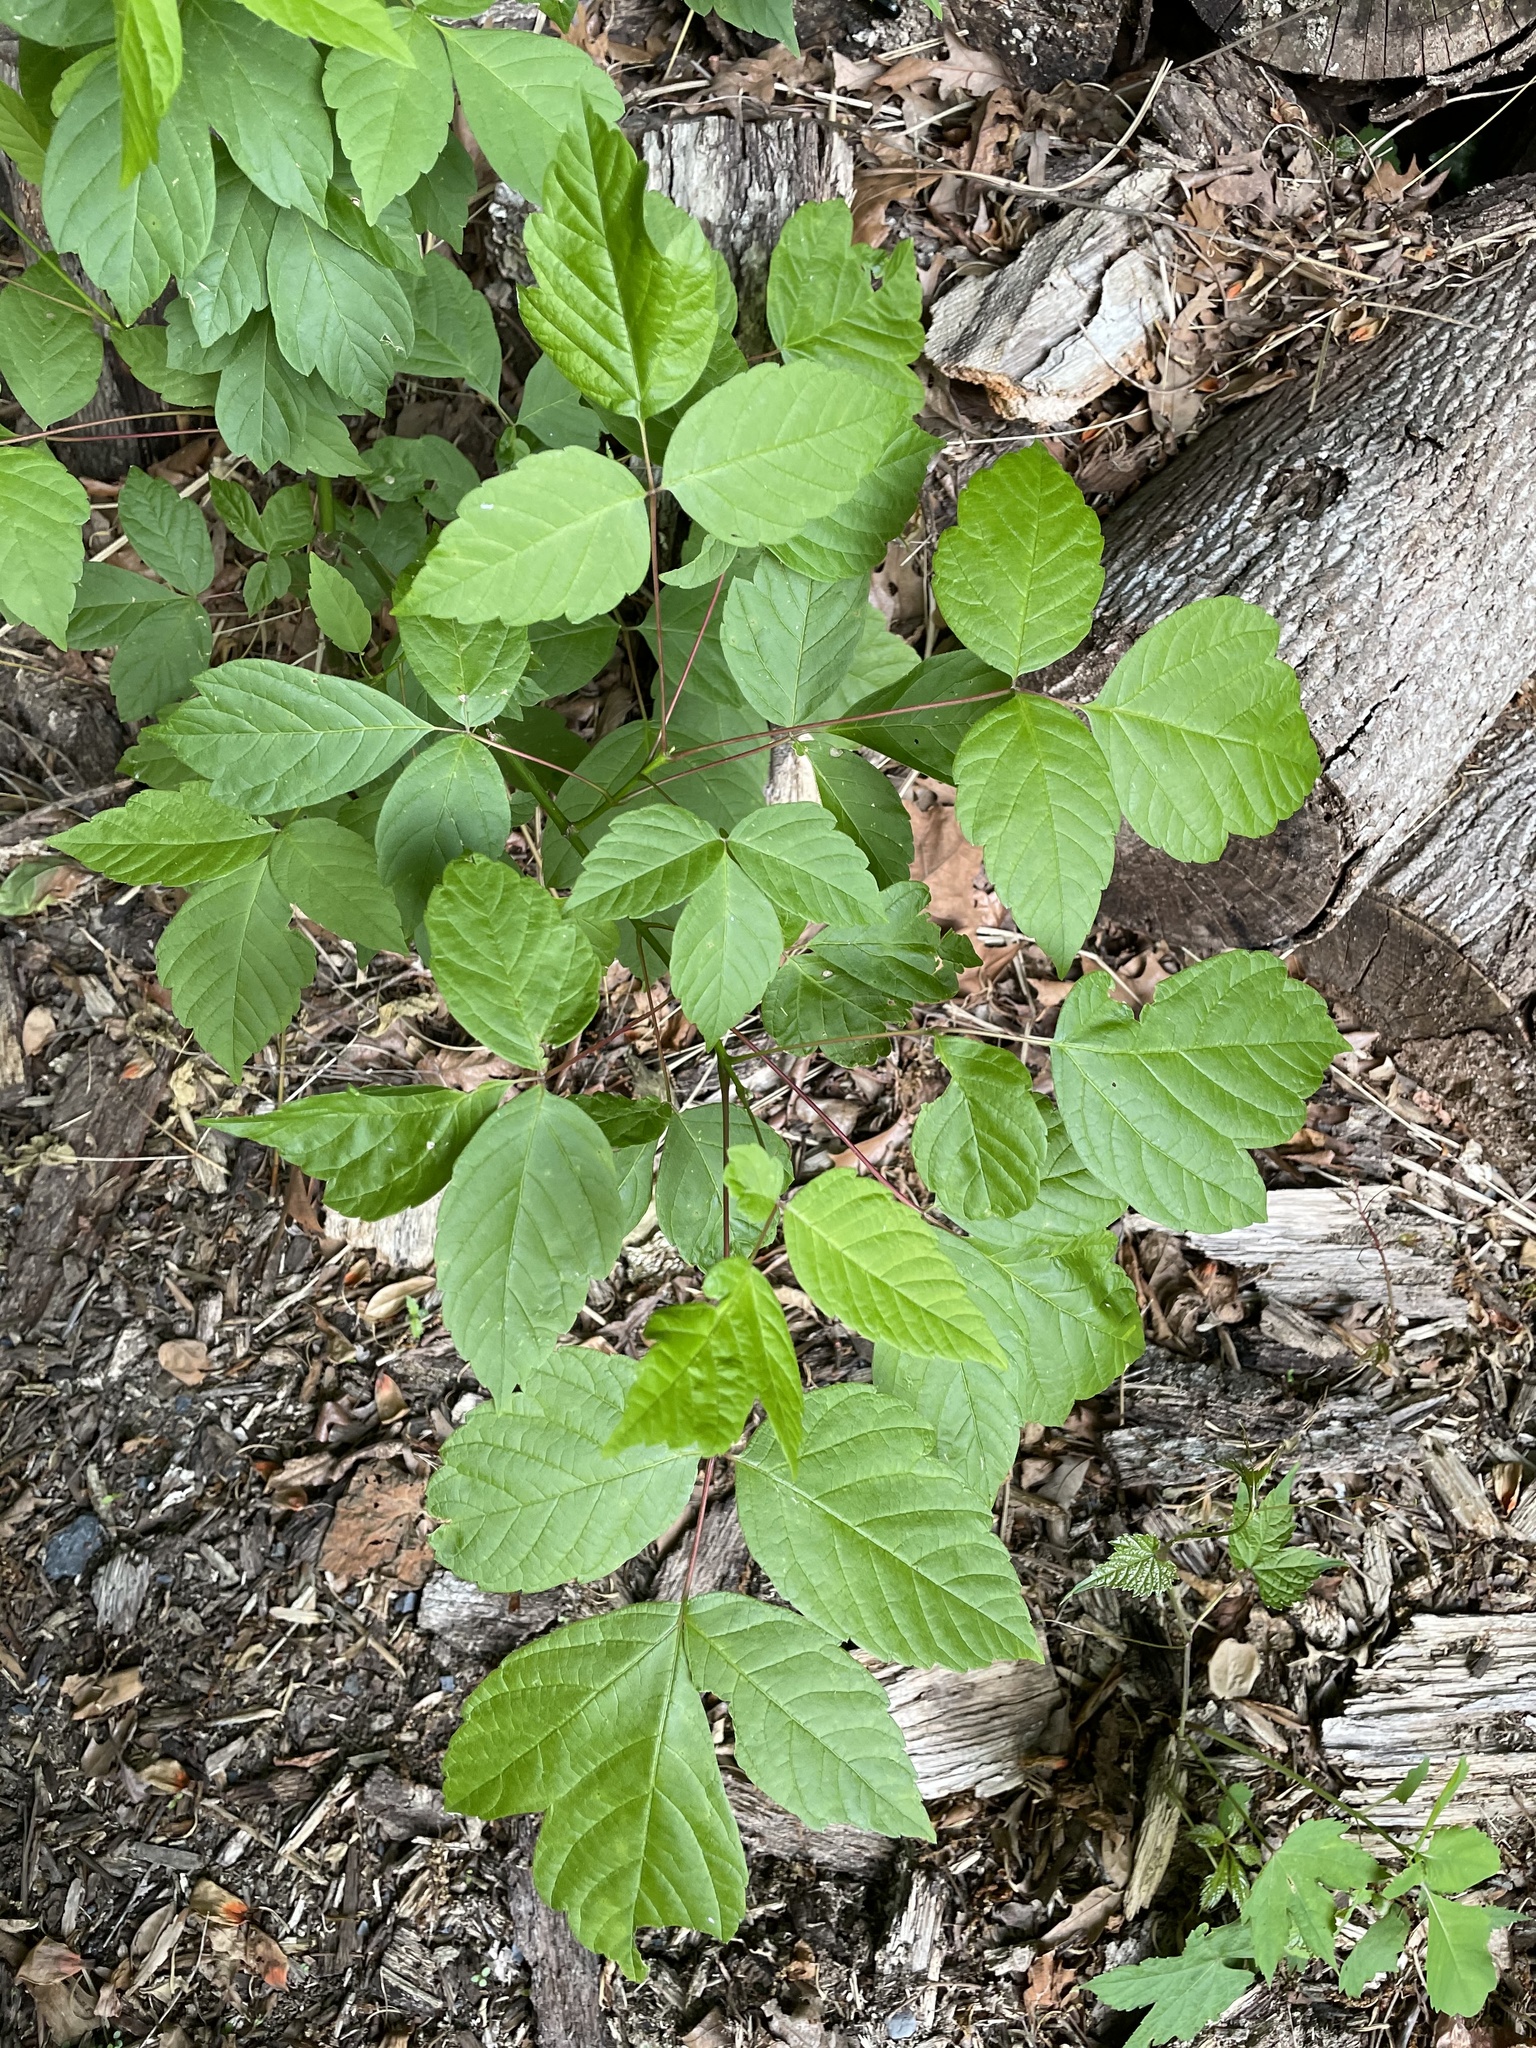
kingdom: Plantae
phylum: Tracheophyta
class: Magnoliopsida
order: Sapindales
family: Sapindaceae
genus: Acer
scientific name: Acer negundo
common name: Ashleaf maple
